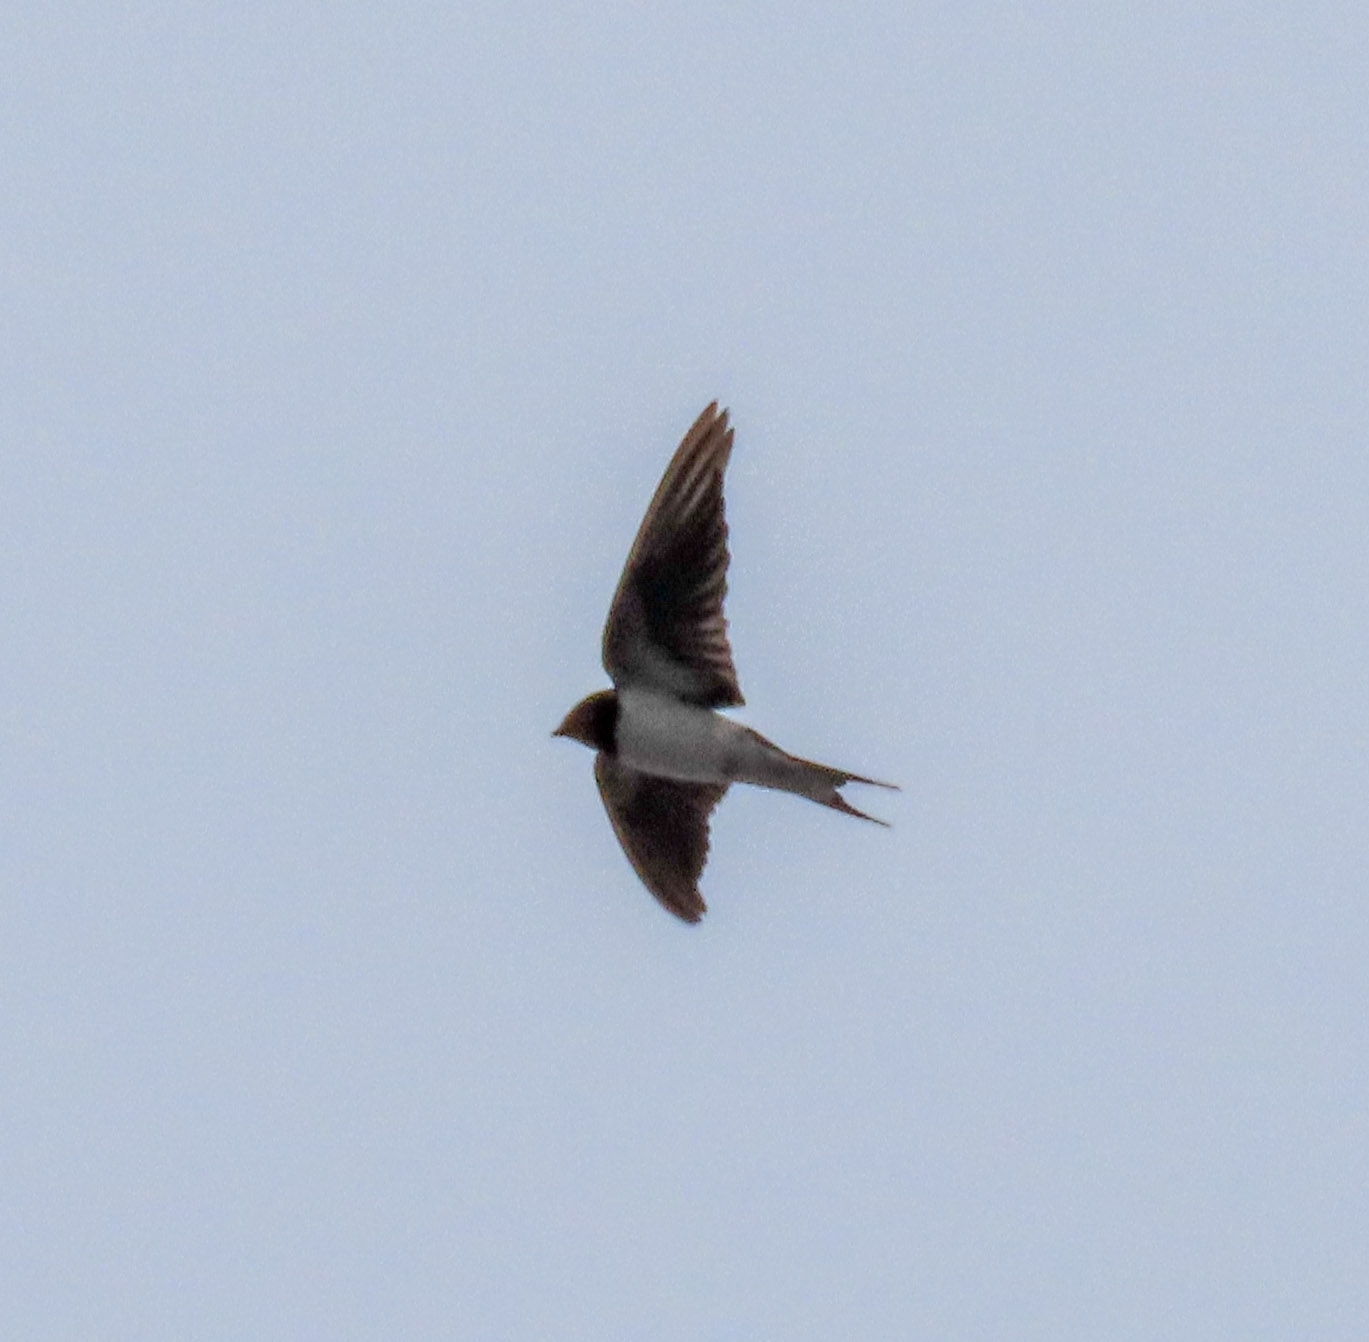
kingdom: Animalia
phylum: Chordata
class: Aves
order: Passeriformes
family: Hirundinidae
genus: Hirundo
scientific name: Hirundo rustica
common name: Barn swallow
